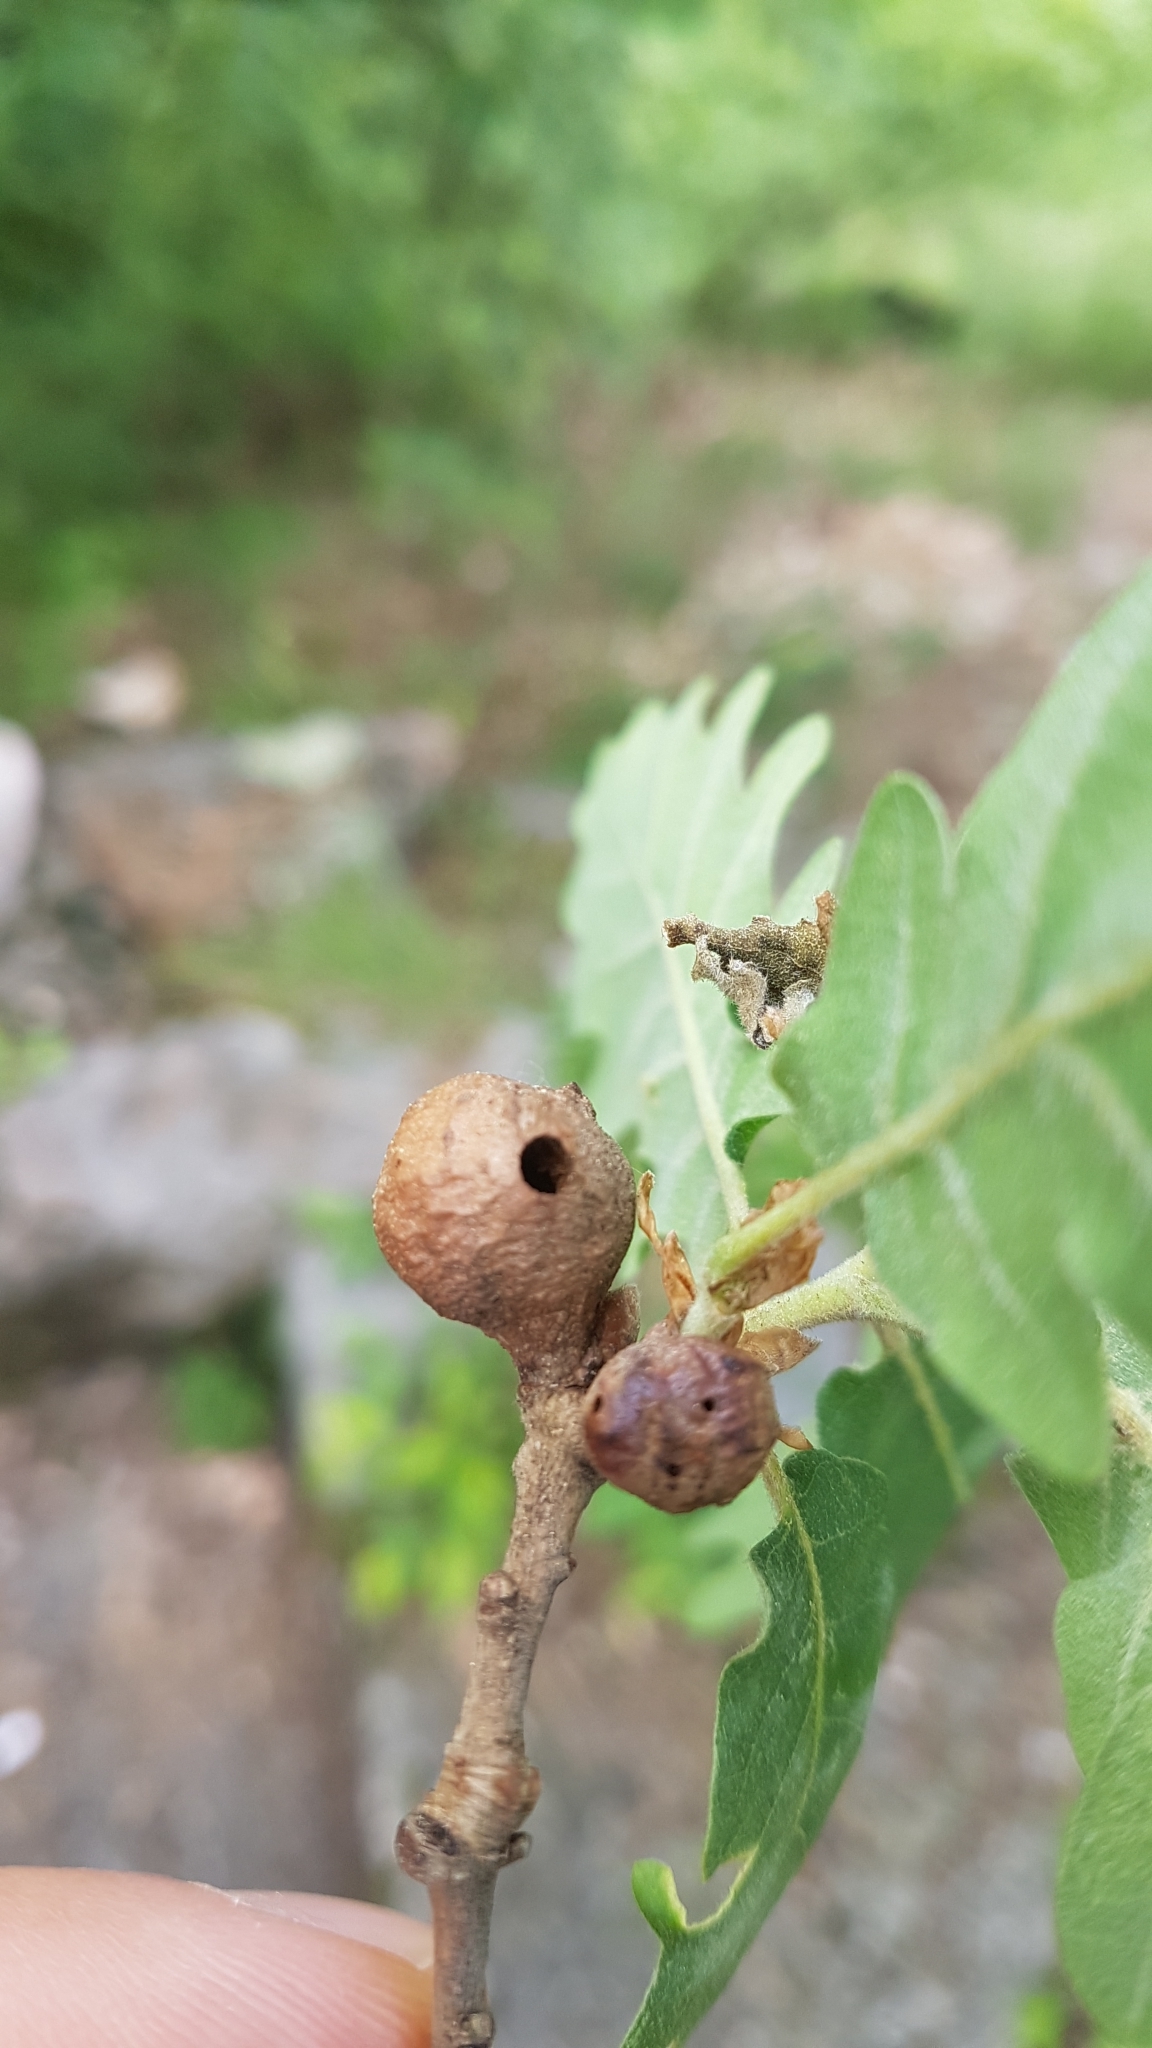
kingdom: Animalia
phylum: Arthropoda
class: Insecta
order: Hymenoptera
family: Cynipidae
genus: Andricus
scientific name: Andricus infectorius
